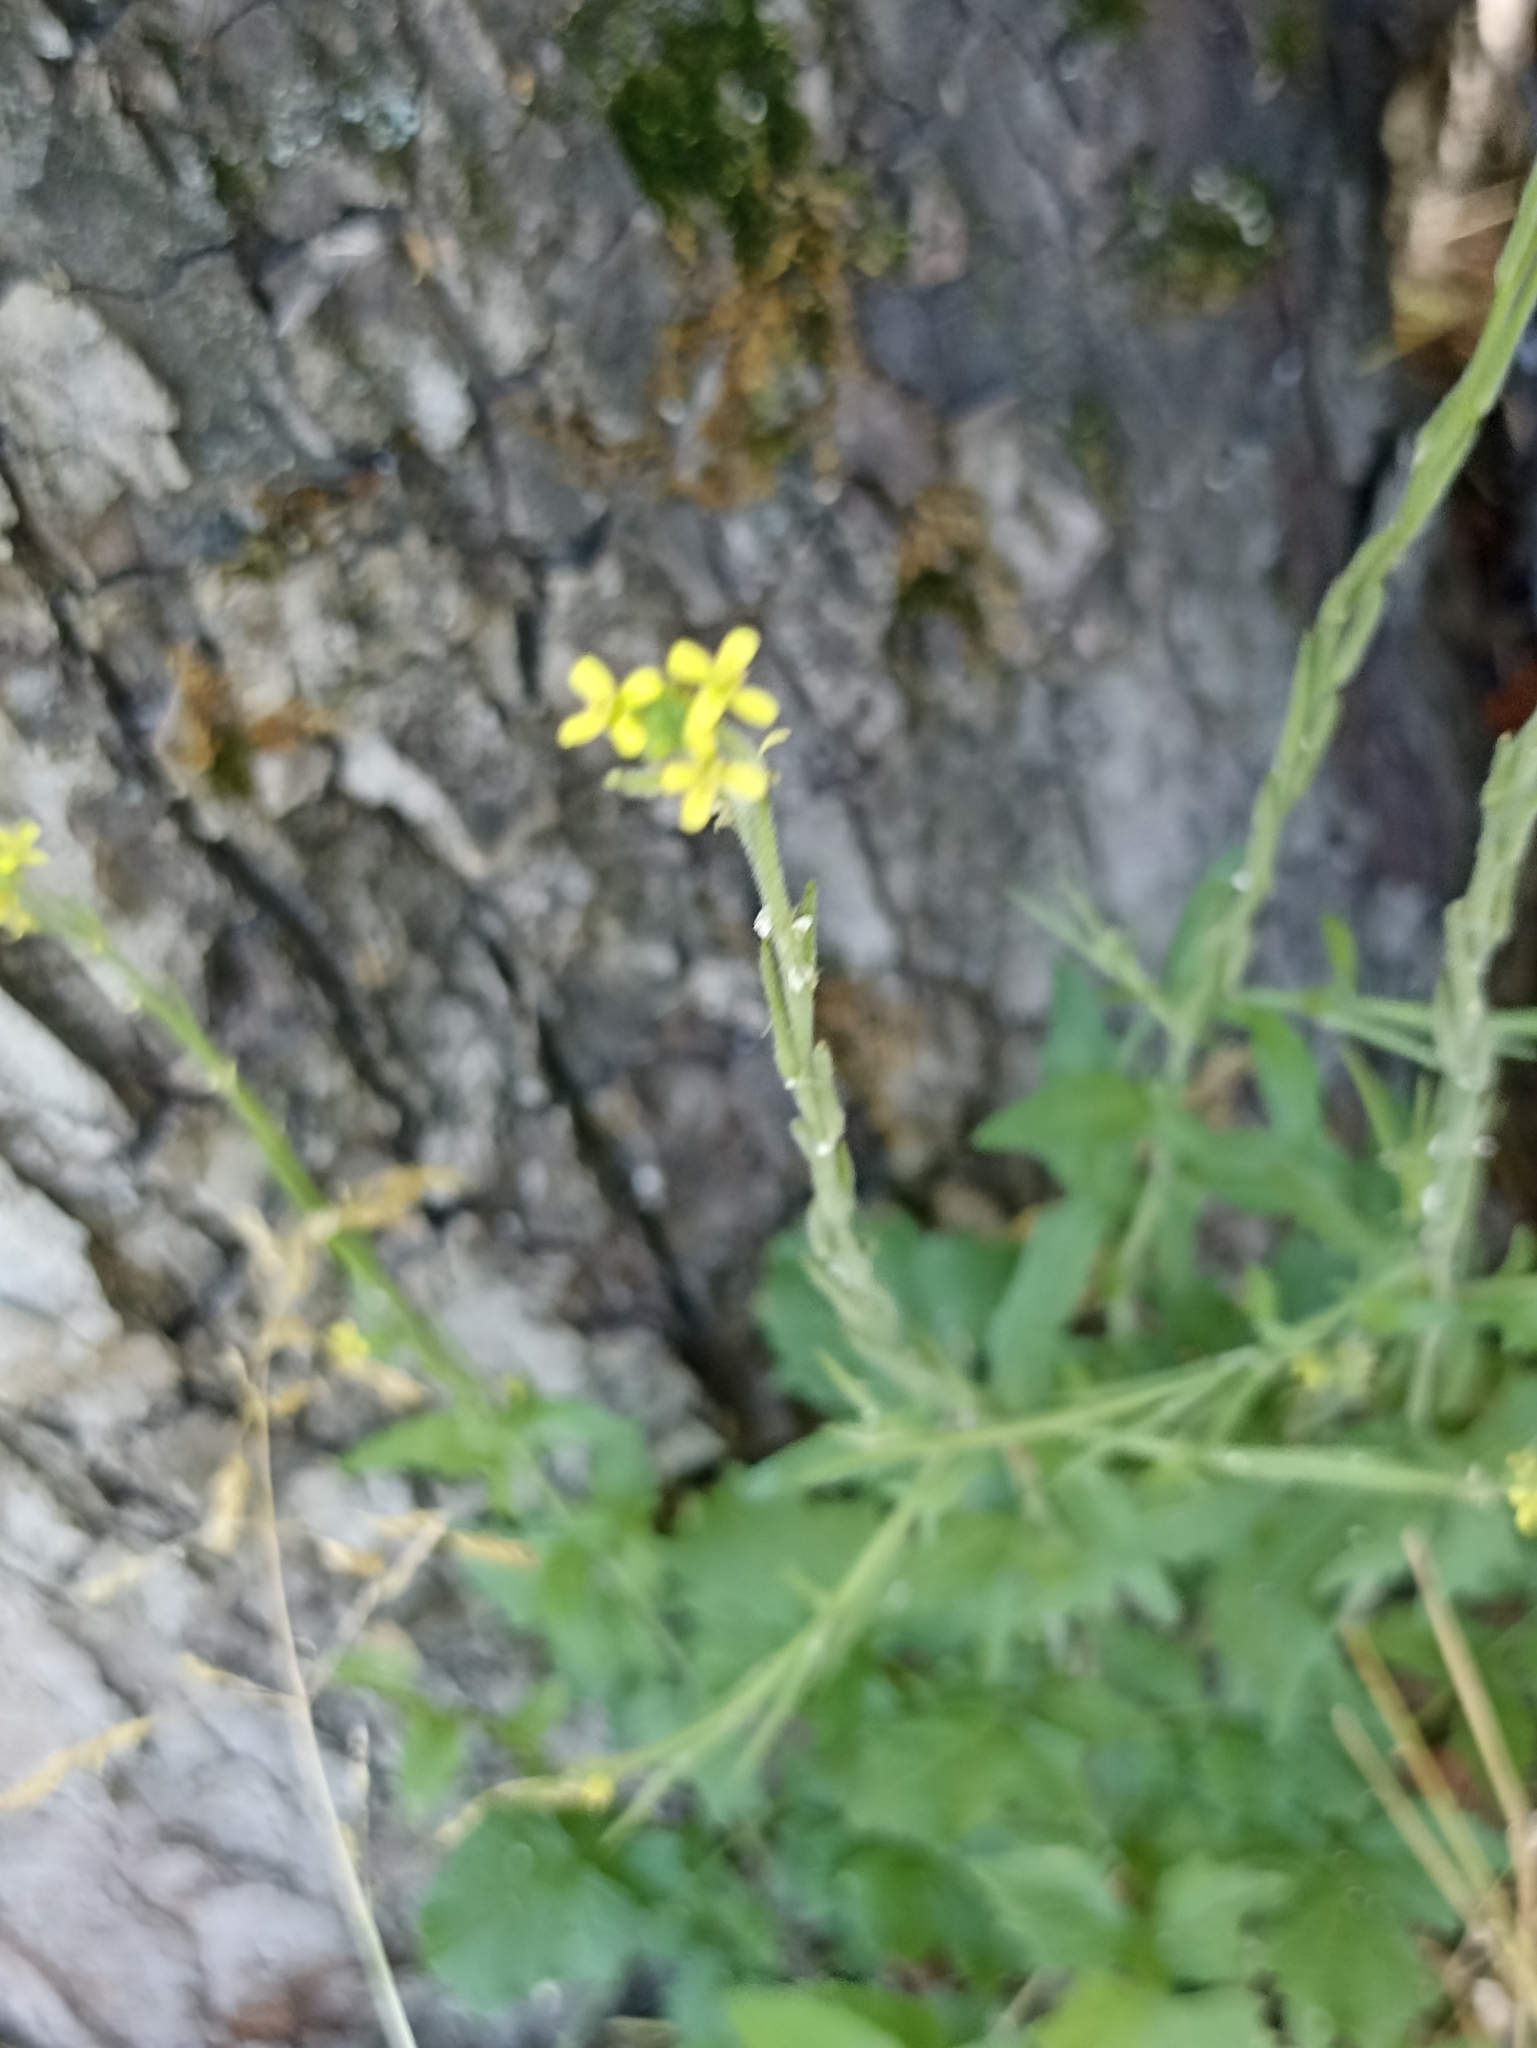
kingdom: Plantae
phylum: Tracheophyta
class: Magnoliopsida
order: Brassicales
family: Brassicaceae
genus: Sisymbrium
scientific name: Sisymbrium officinale
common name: Hedge mustard
